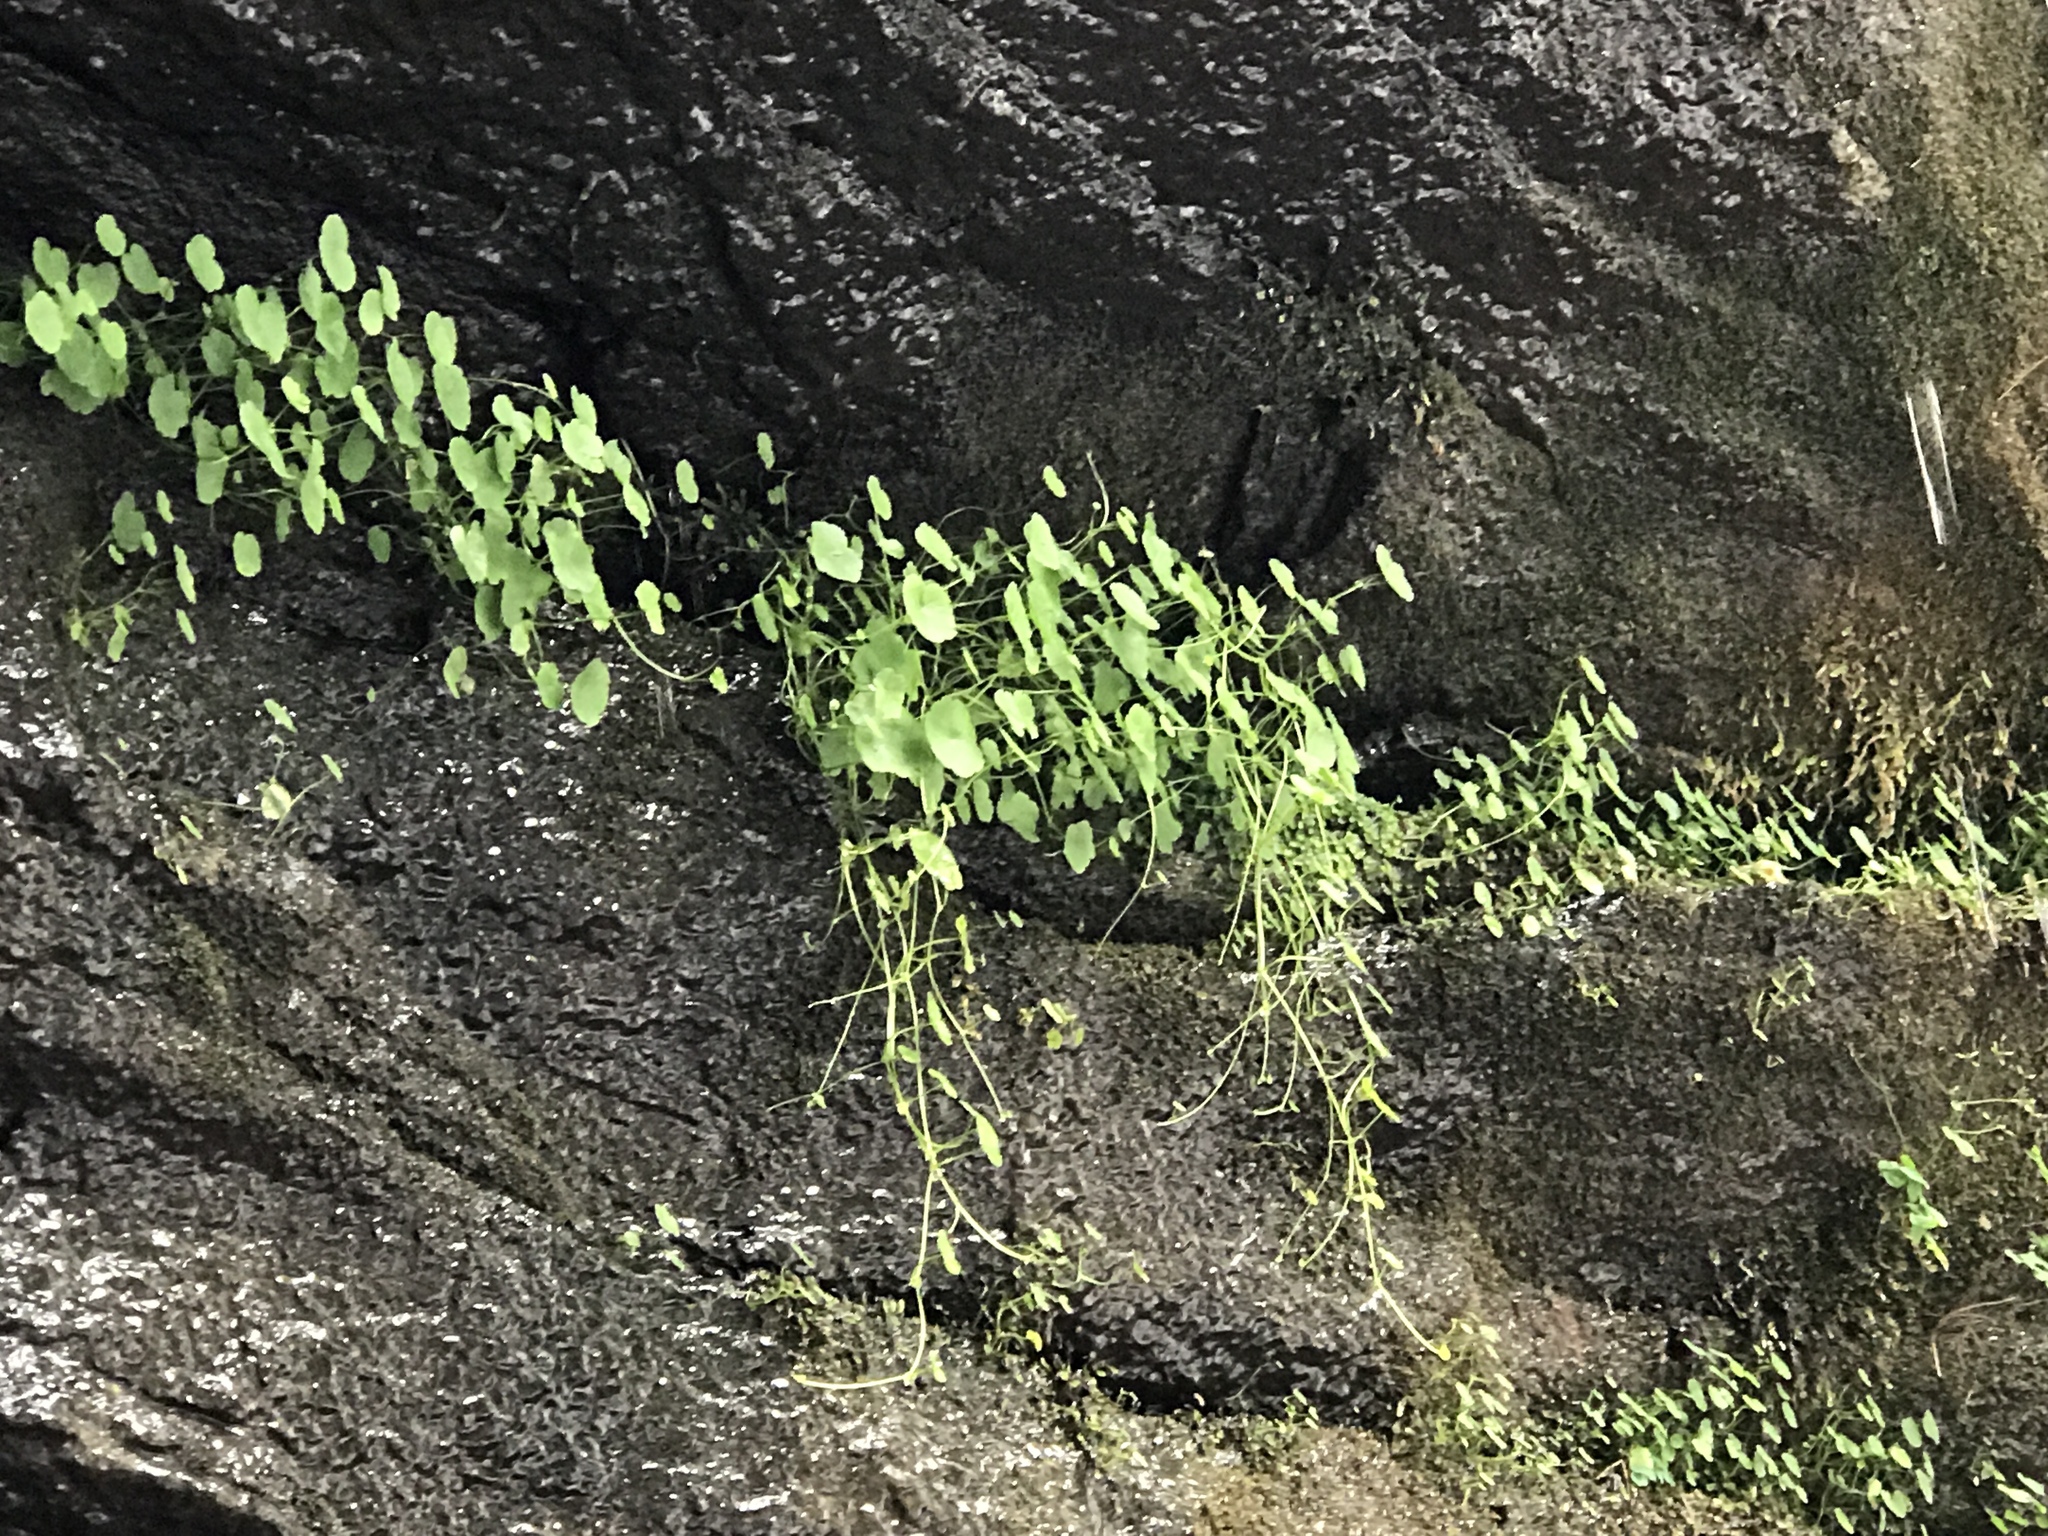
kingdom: Plantae
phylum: Tracheophyta
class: Magnoliopsida
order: Apiales
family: Araliaceae
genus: Hydrocotyle
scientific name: Hydrocotyle americana
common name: American water-pennywort
